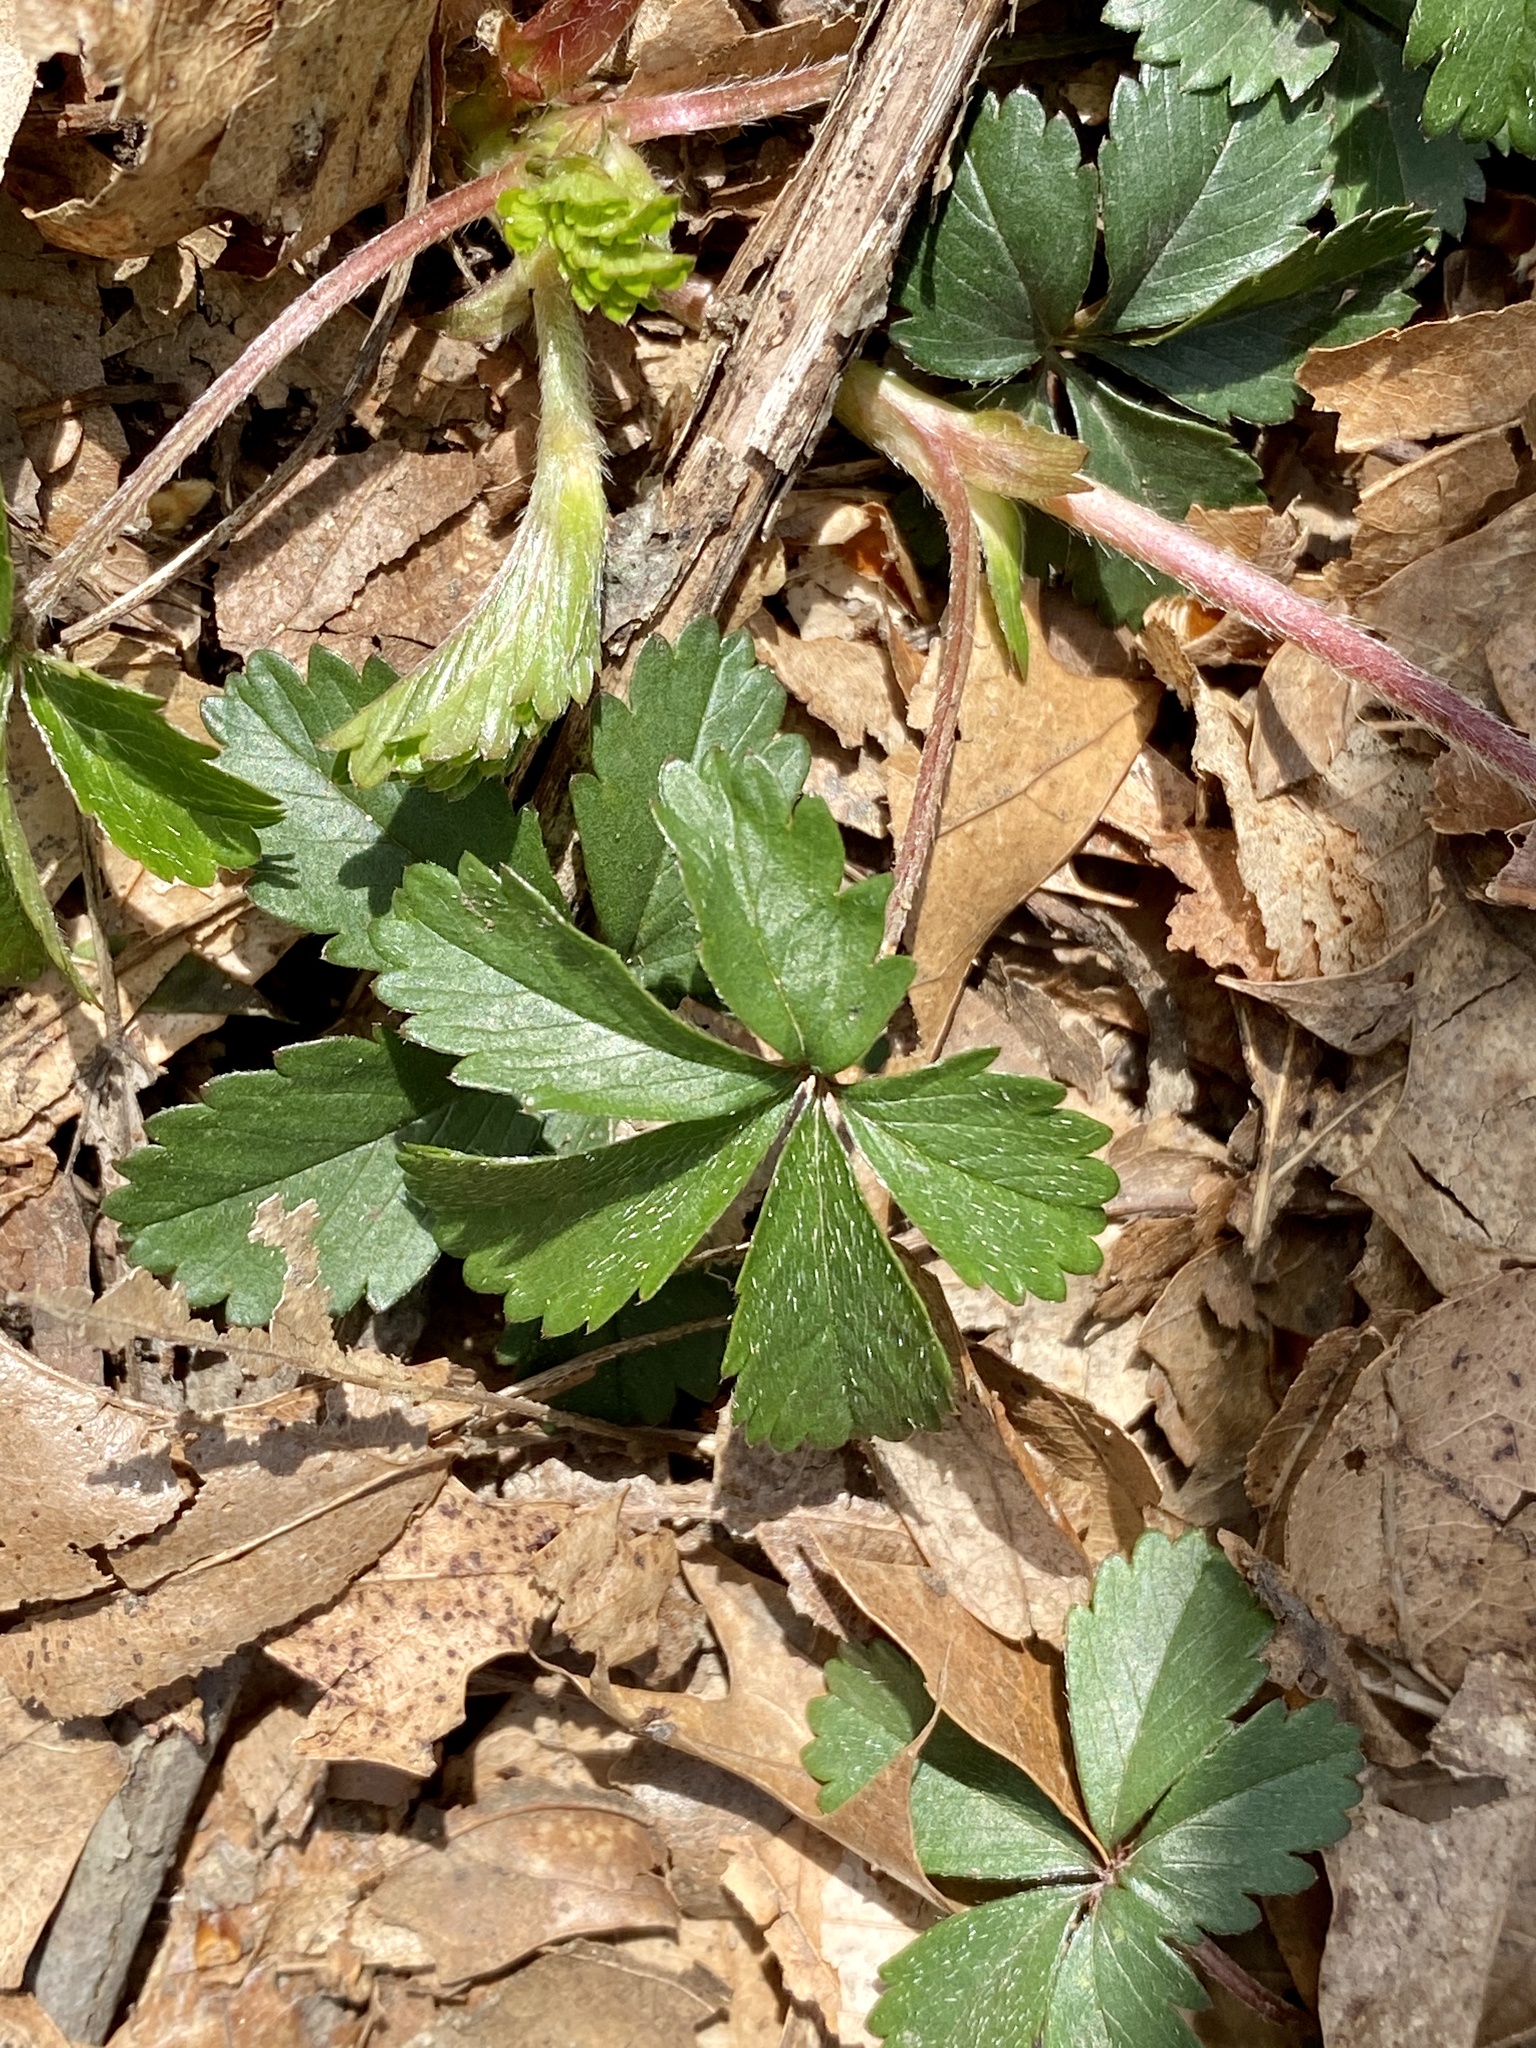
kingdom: Plantae
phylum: Tracheophyta
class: Magnoliopsida
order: Rosales
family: Rosaceae
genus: Potentilla
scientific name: Potentilla canadensis
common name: Canada cinquefoil
